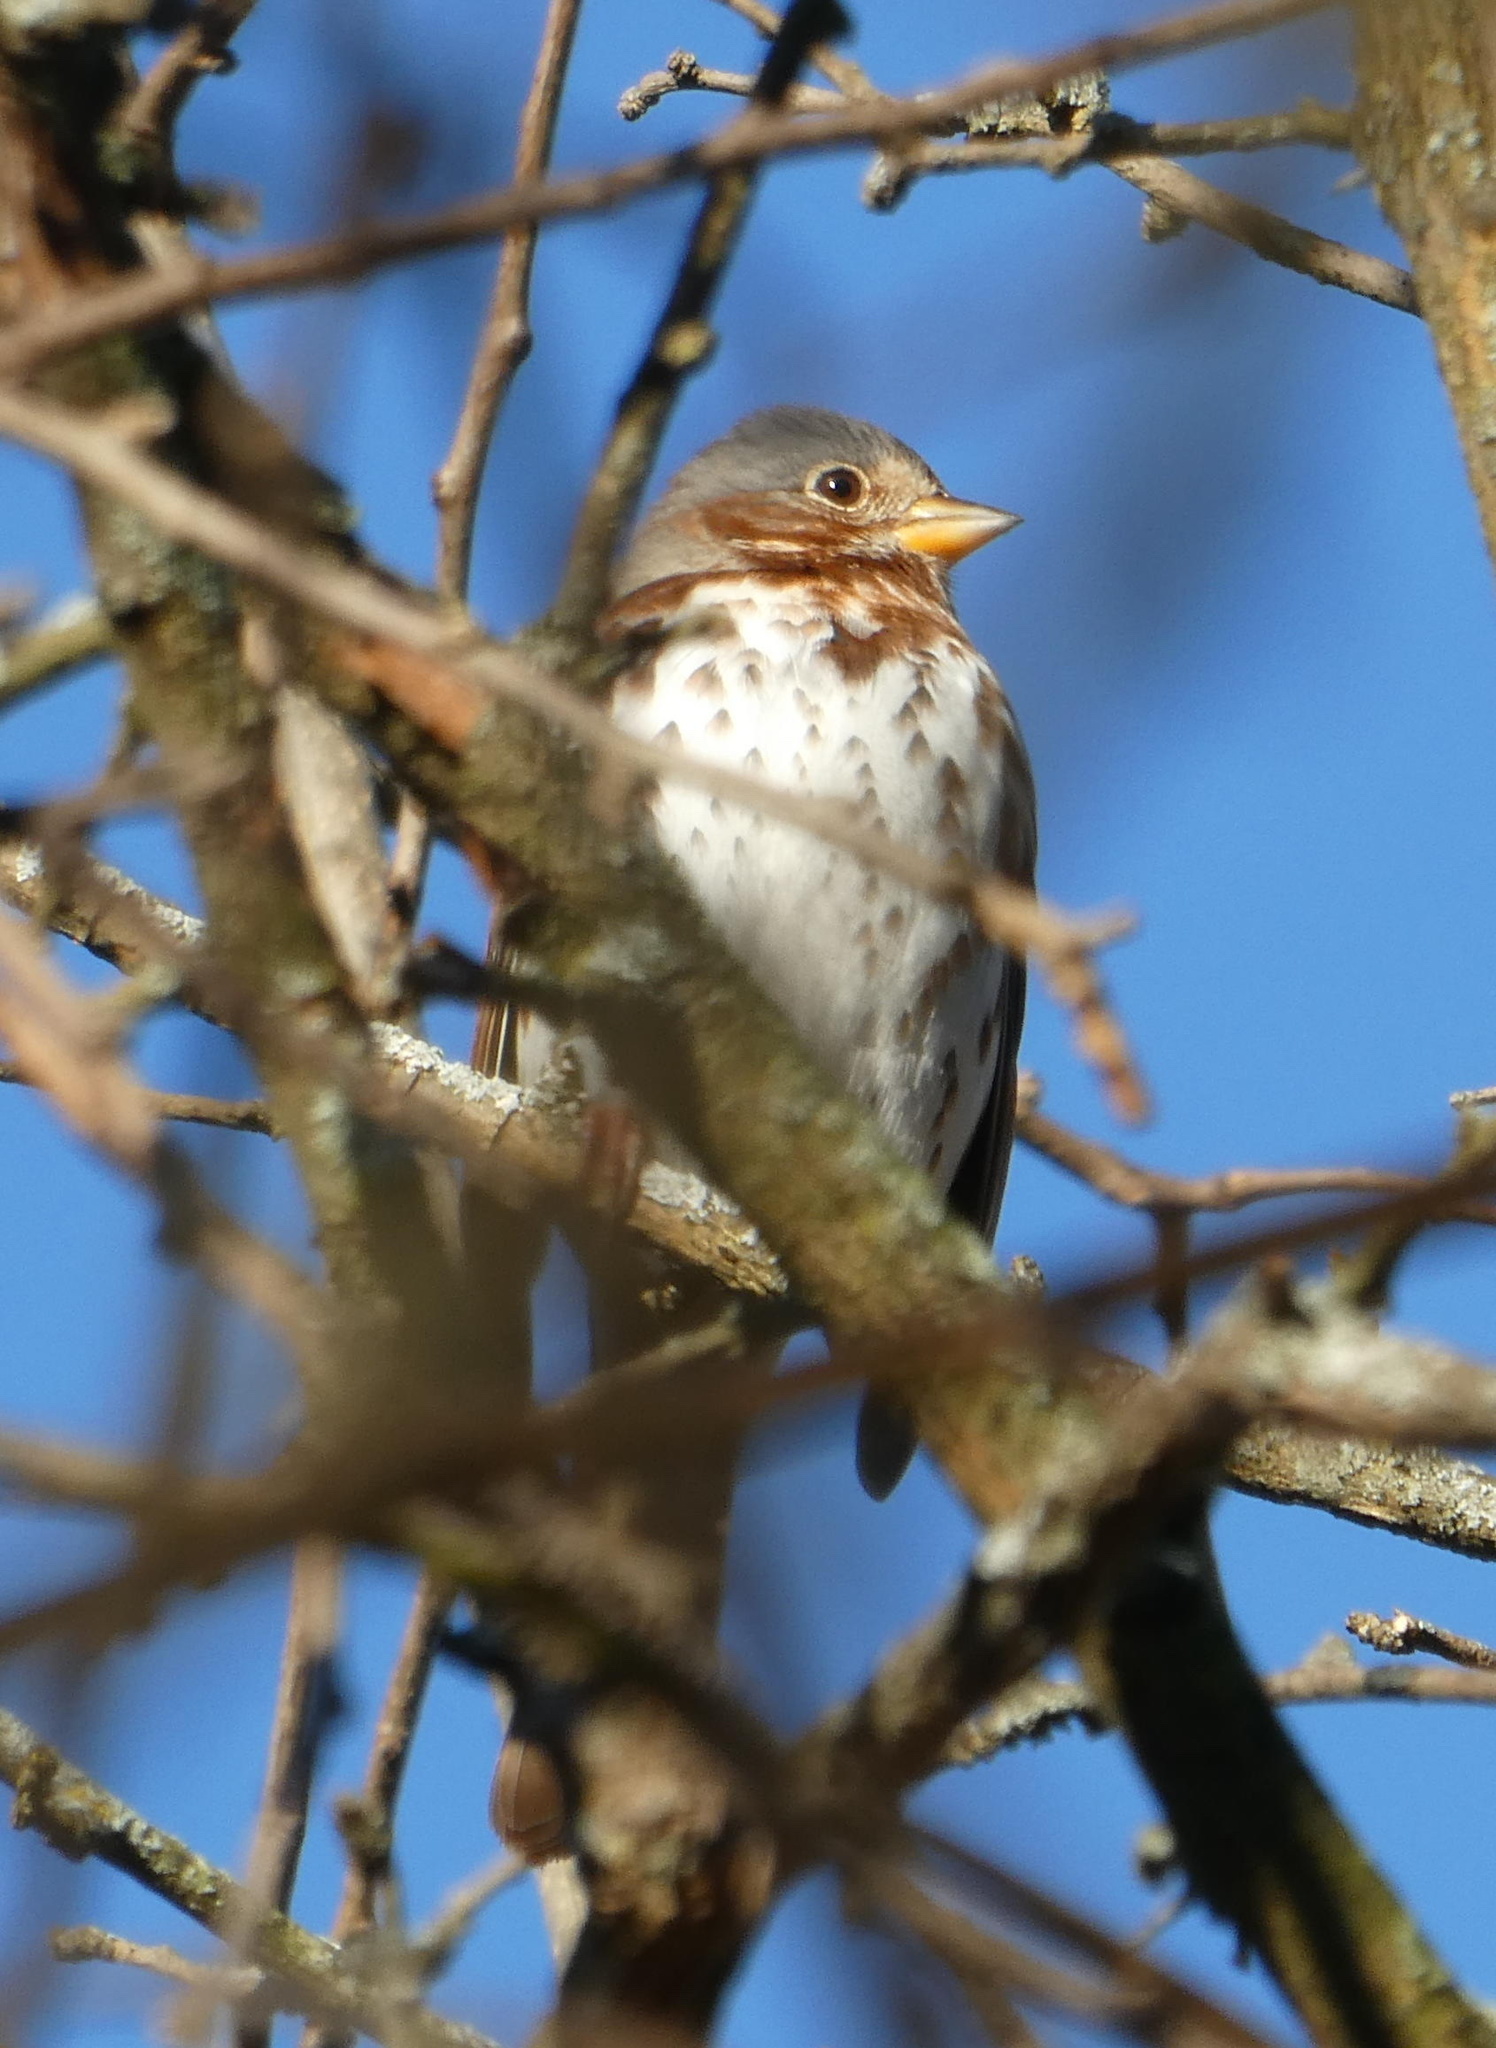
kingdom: Animalia
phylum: Chordata
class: Aves
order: Passeriformes
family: Passerellidae
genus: Passerella
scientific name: Passerella iliaca
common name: Fox sparrow
